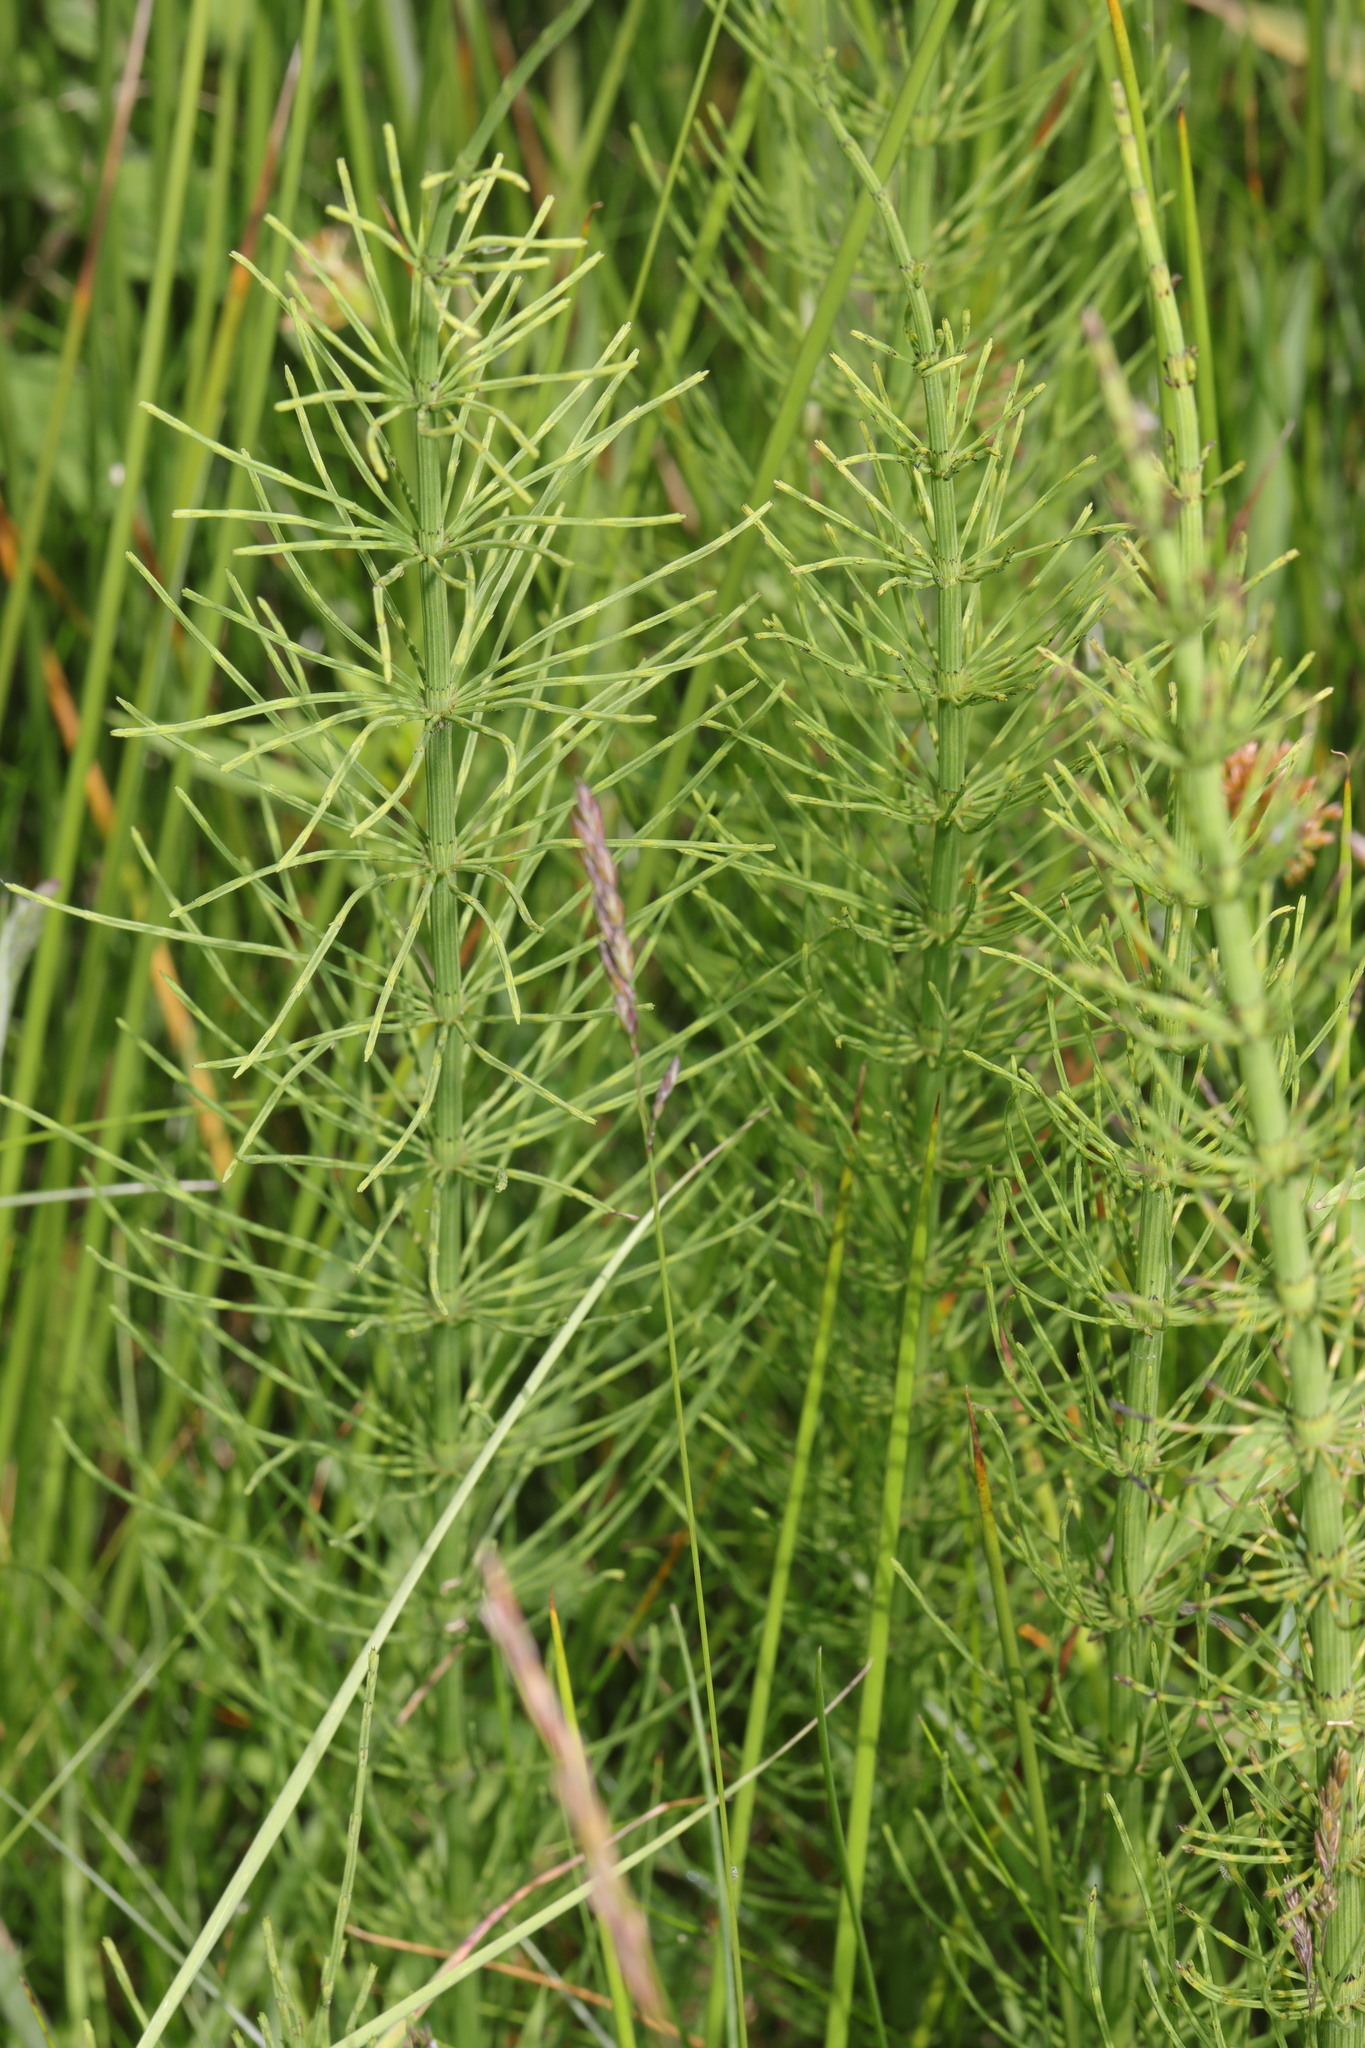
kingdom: Plantae
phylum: Tracheophyta
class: Polypodiopsida
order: Equisetales
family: Equisetaceae
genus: Equisetum
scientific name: Equisetum litorale
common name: Littoral horsetail
